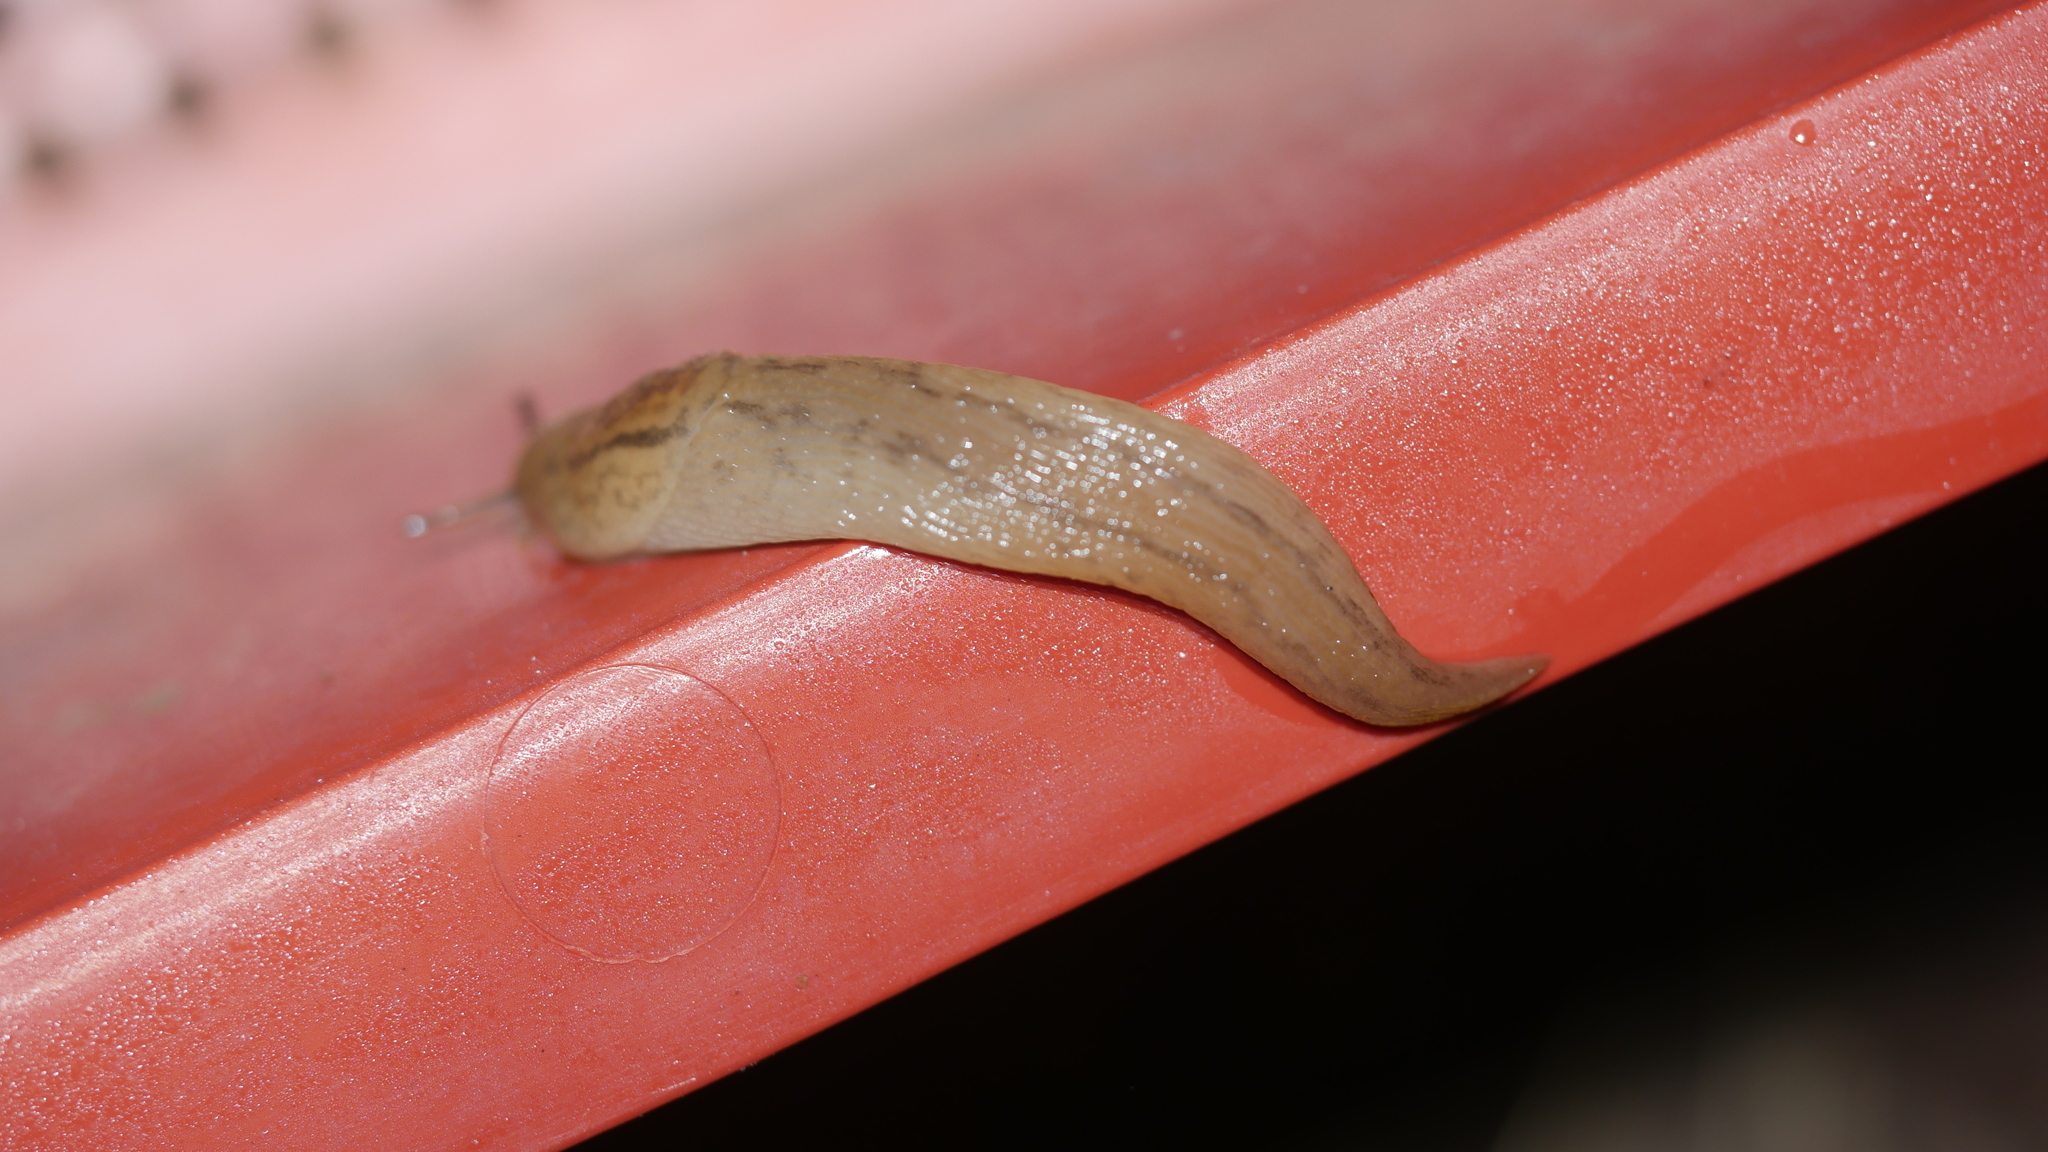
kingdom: Animalia
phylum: Mollusca
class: Gastropoda
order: Stylommatophora
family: Limacidae
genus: Ambigolimax
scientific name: Ambigolimax
